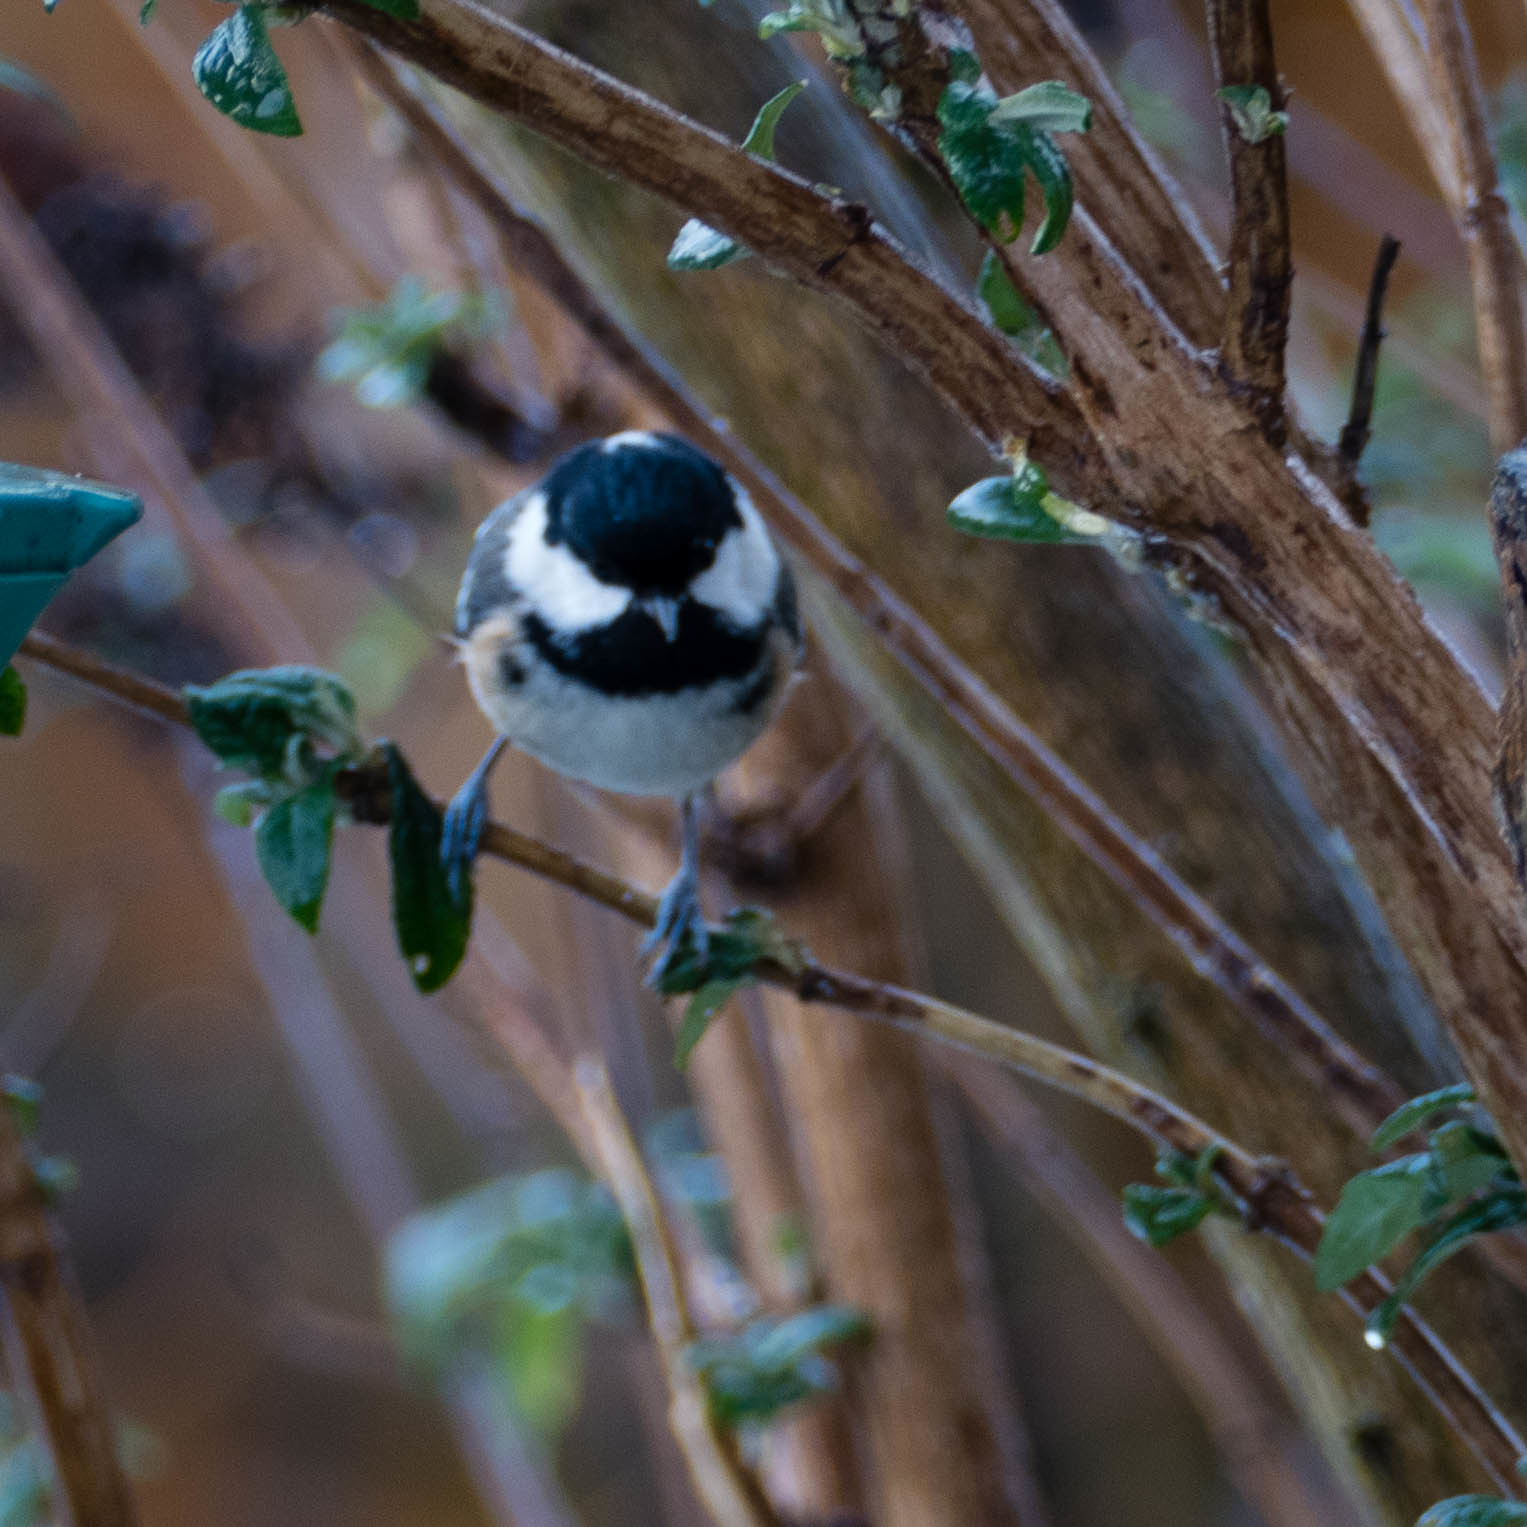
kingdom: Animalia
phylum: Chordata
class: Aves
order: Passeriformes
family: Paridae
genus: Periparus
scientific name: Periparus ater
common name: Coal tit
